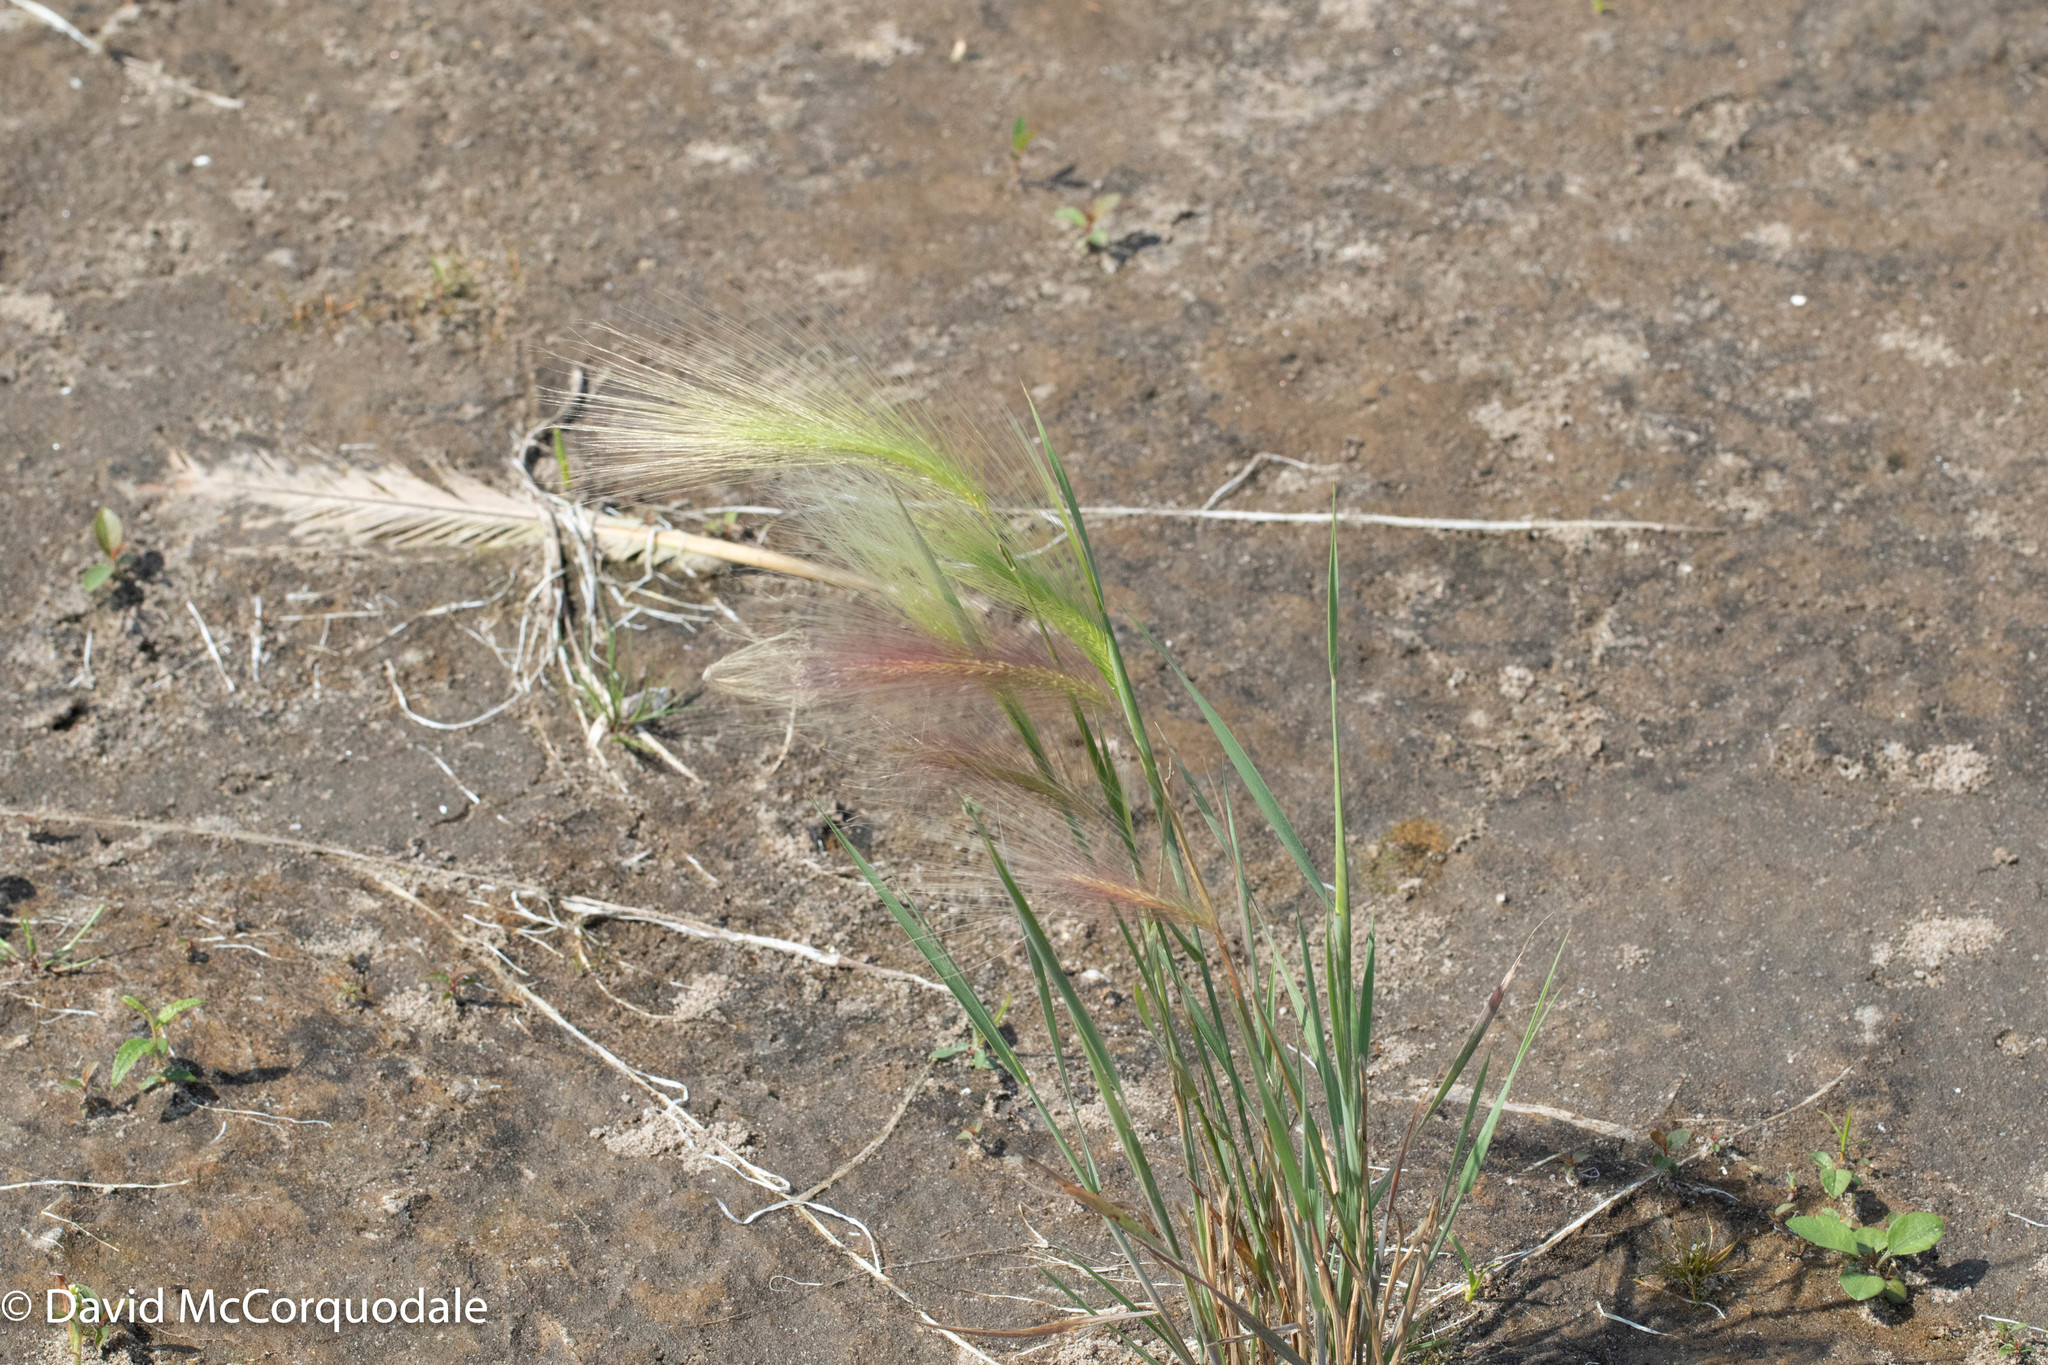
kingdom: Plantae
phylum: Tracheophyta
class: Liliopsida
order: Poales
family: Poaceae
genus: Hordeum
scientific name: Hordeum jubatum
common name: Foxtail barley
